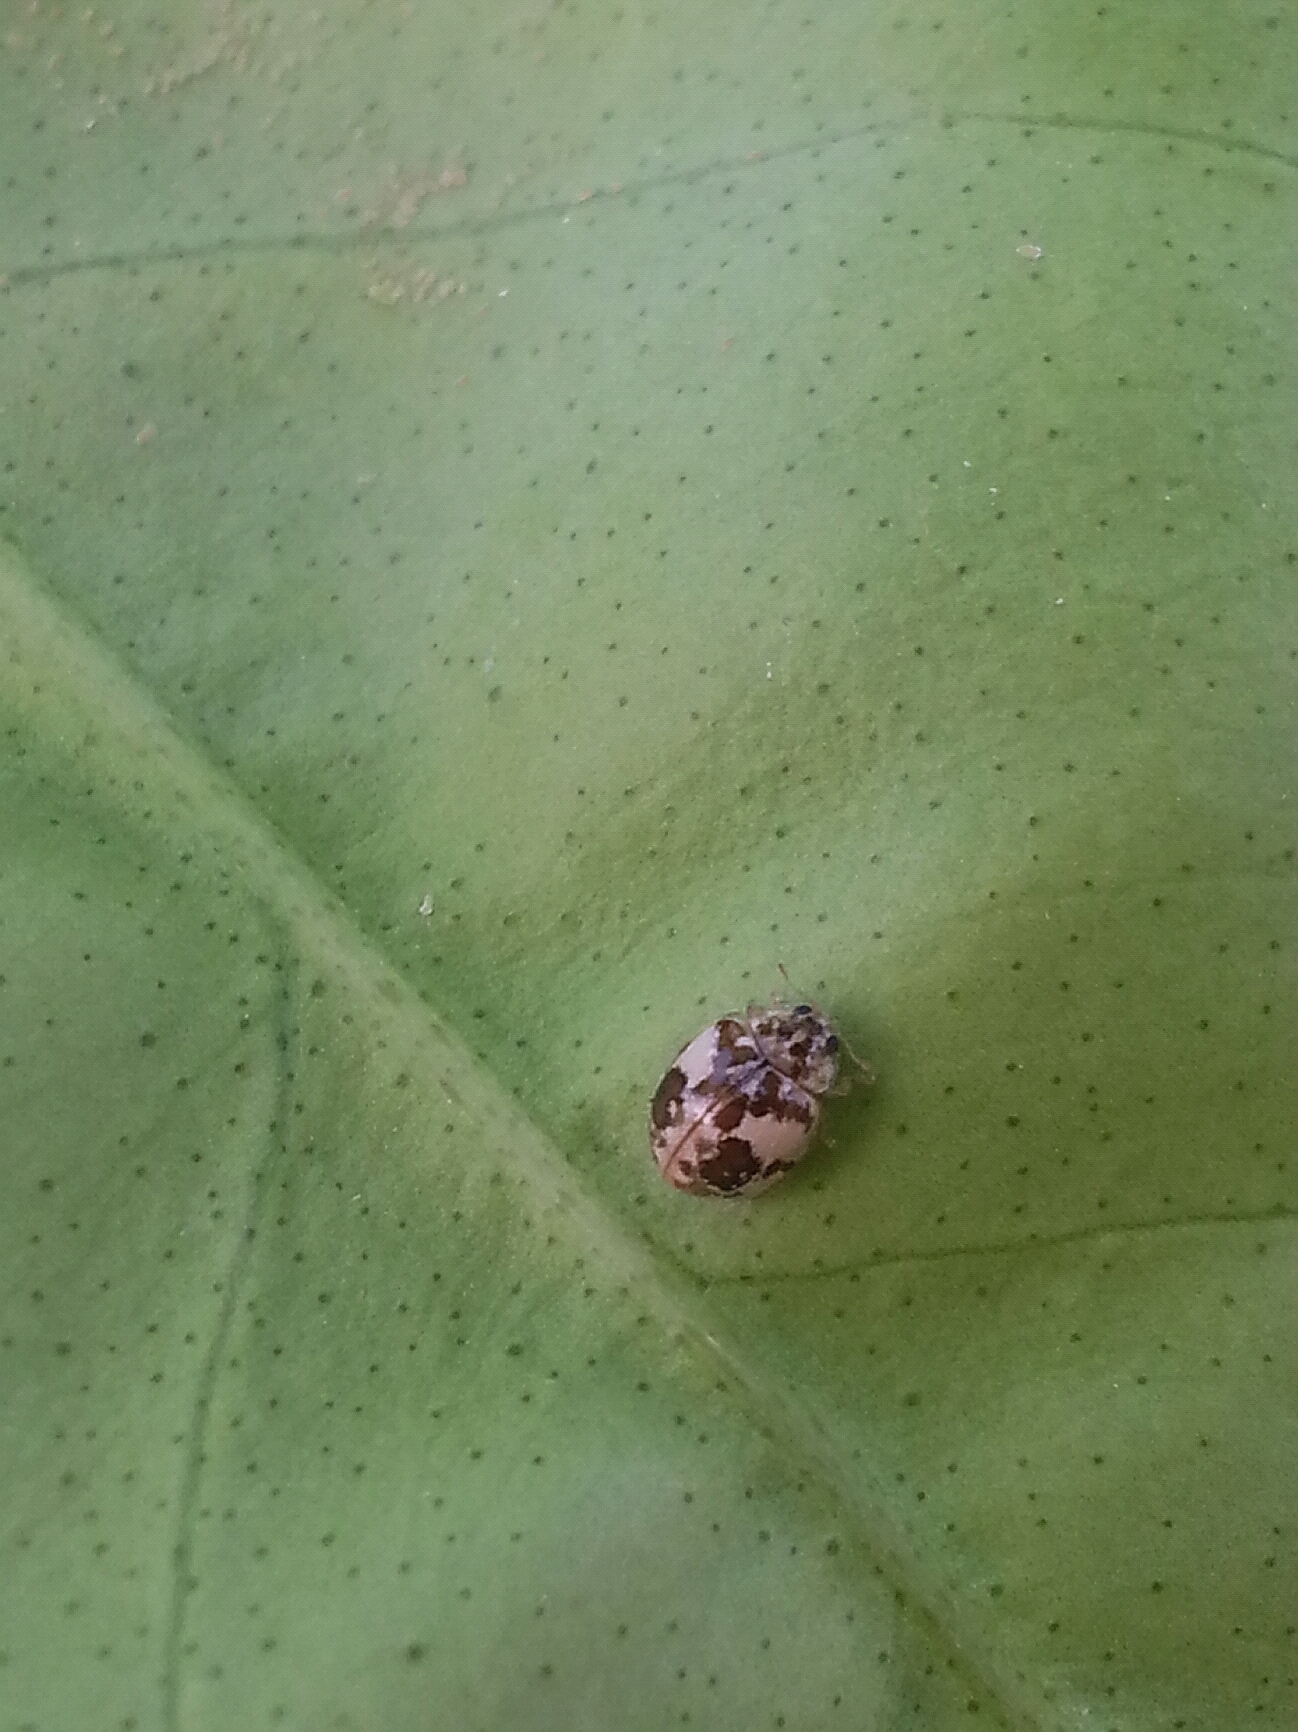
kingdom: Animalia
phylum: Arthropoda
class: Insecta
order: Coleoptera
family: Coccinellidae
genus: Psyllobora
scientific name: Psyllobora
